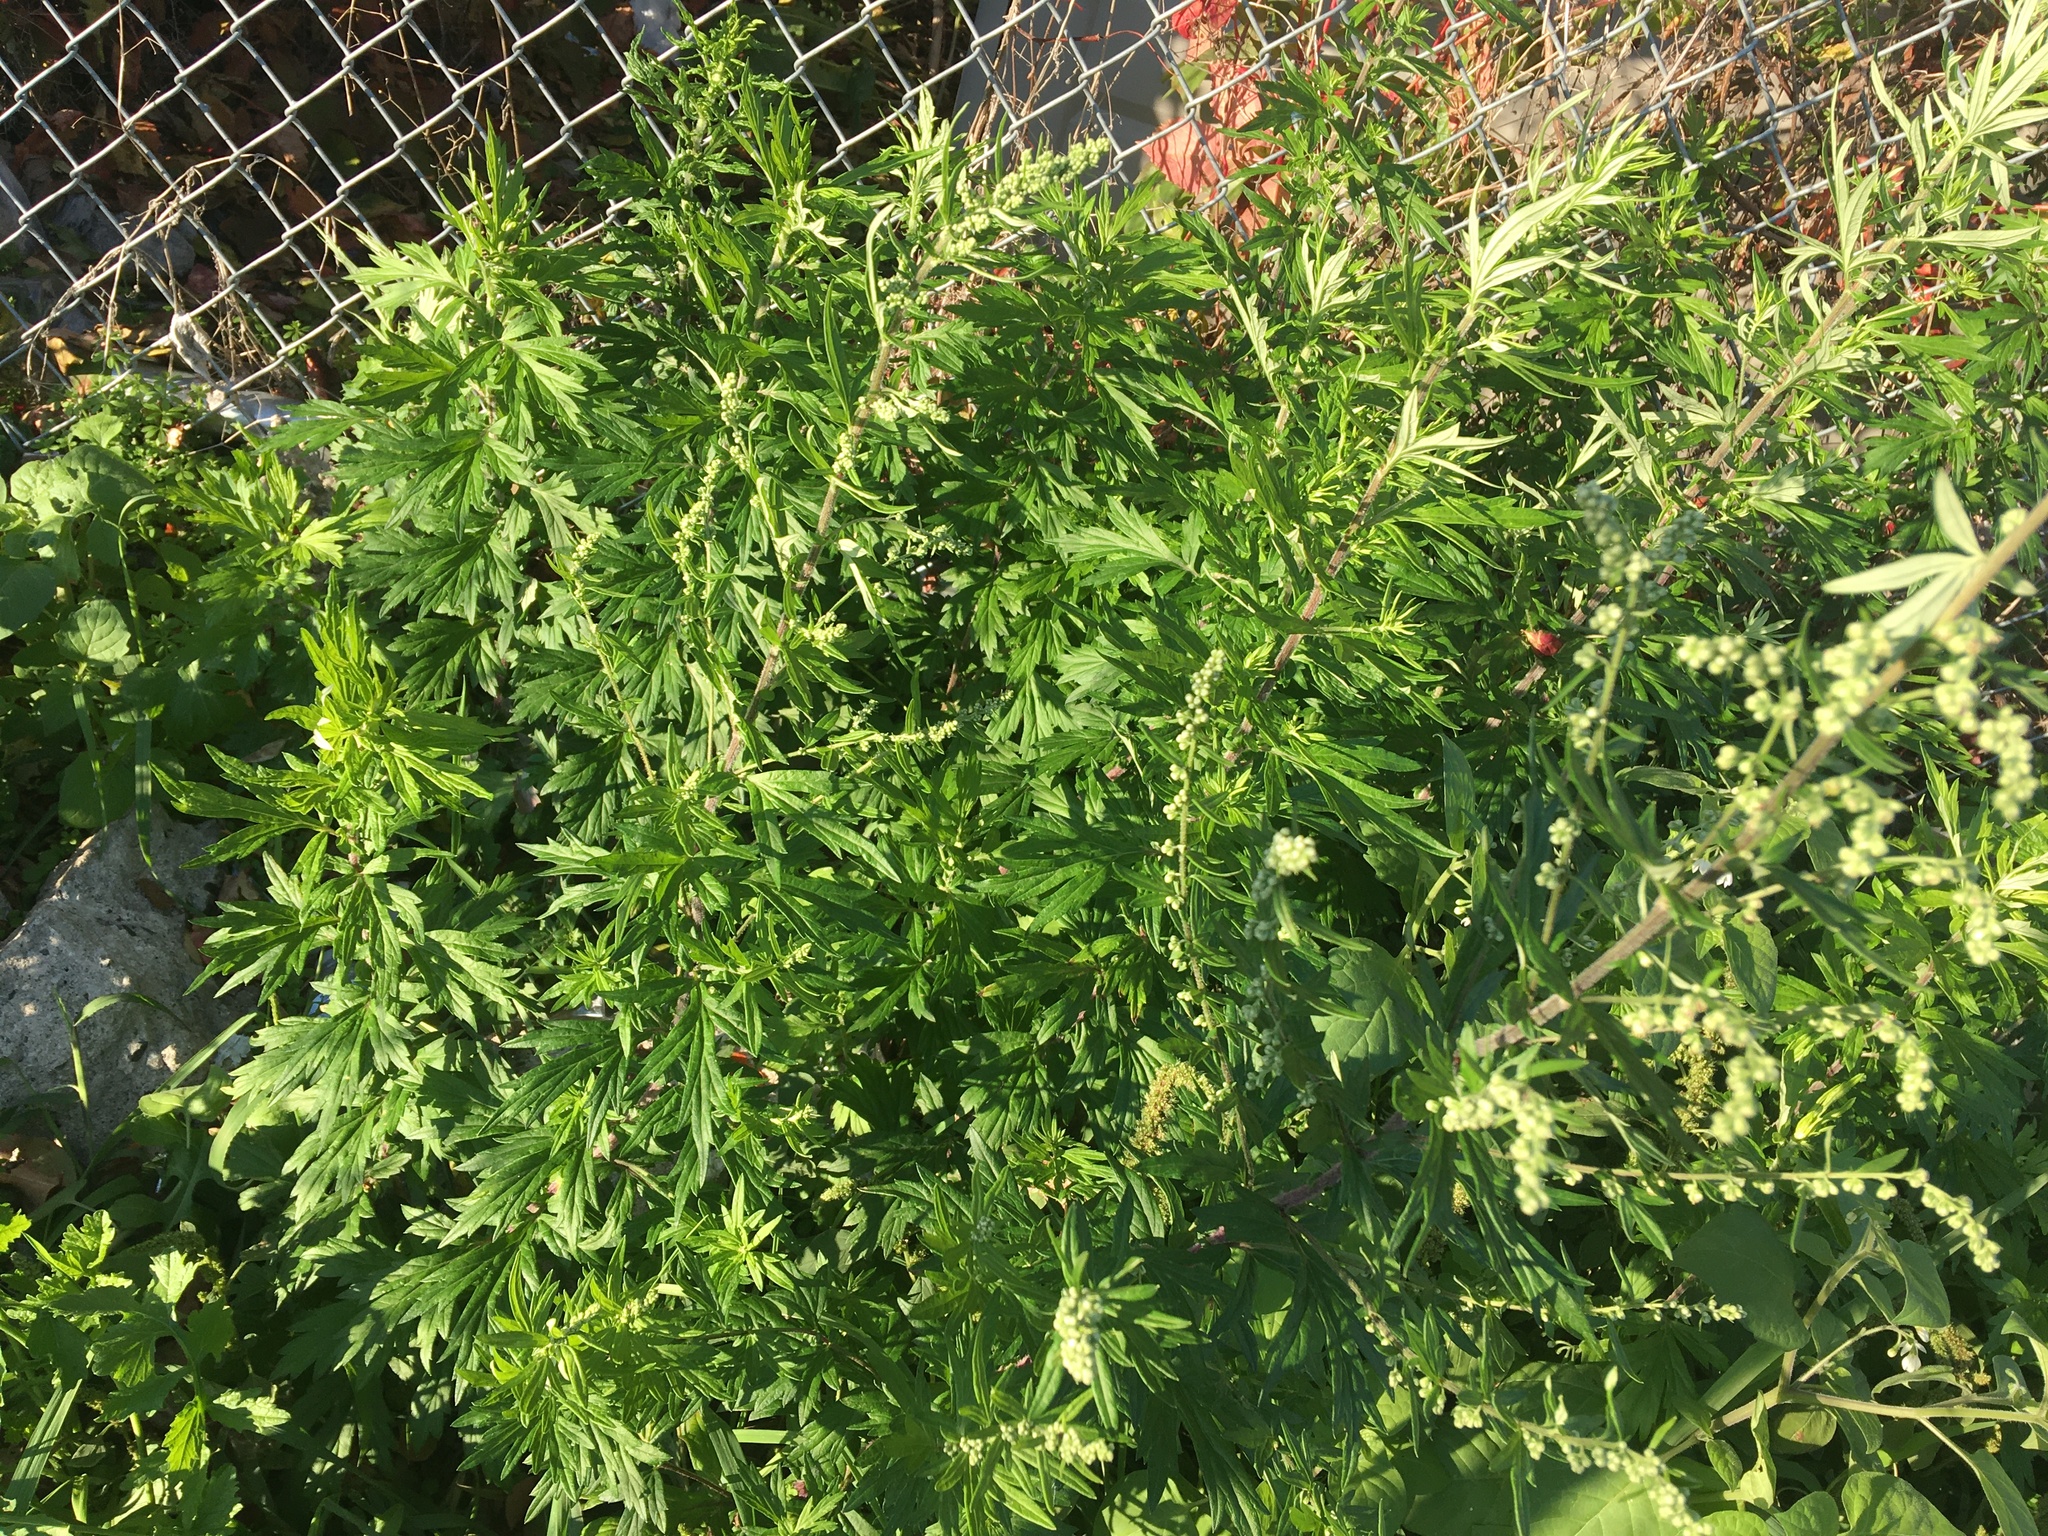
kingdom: Plantae
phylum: Tracheophyta
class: Magnoliopsida
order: Asterales
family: Asteraceae
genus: Artemisia
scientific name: Artemisia vulgaris
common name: Mugwort
